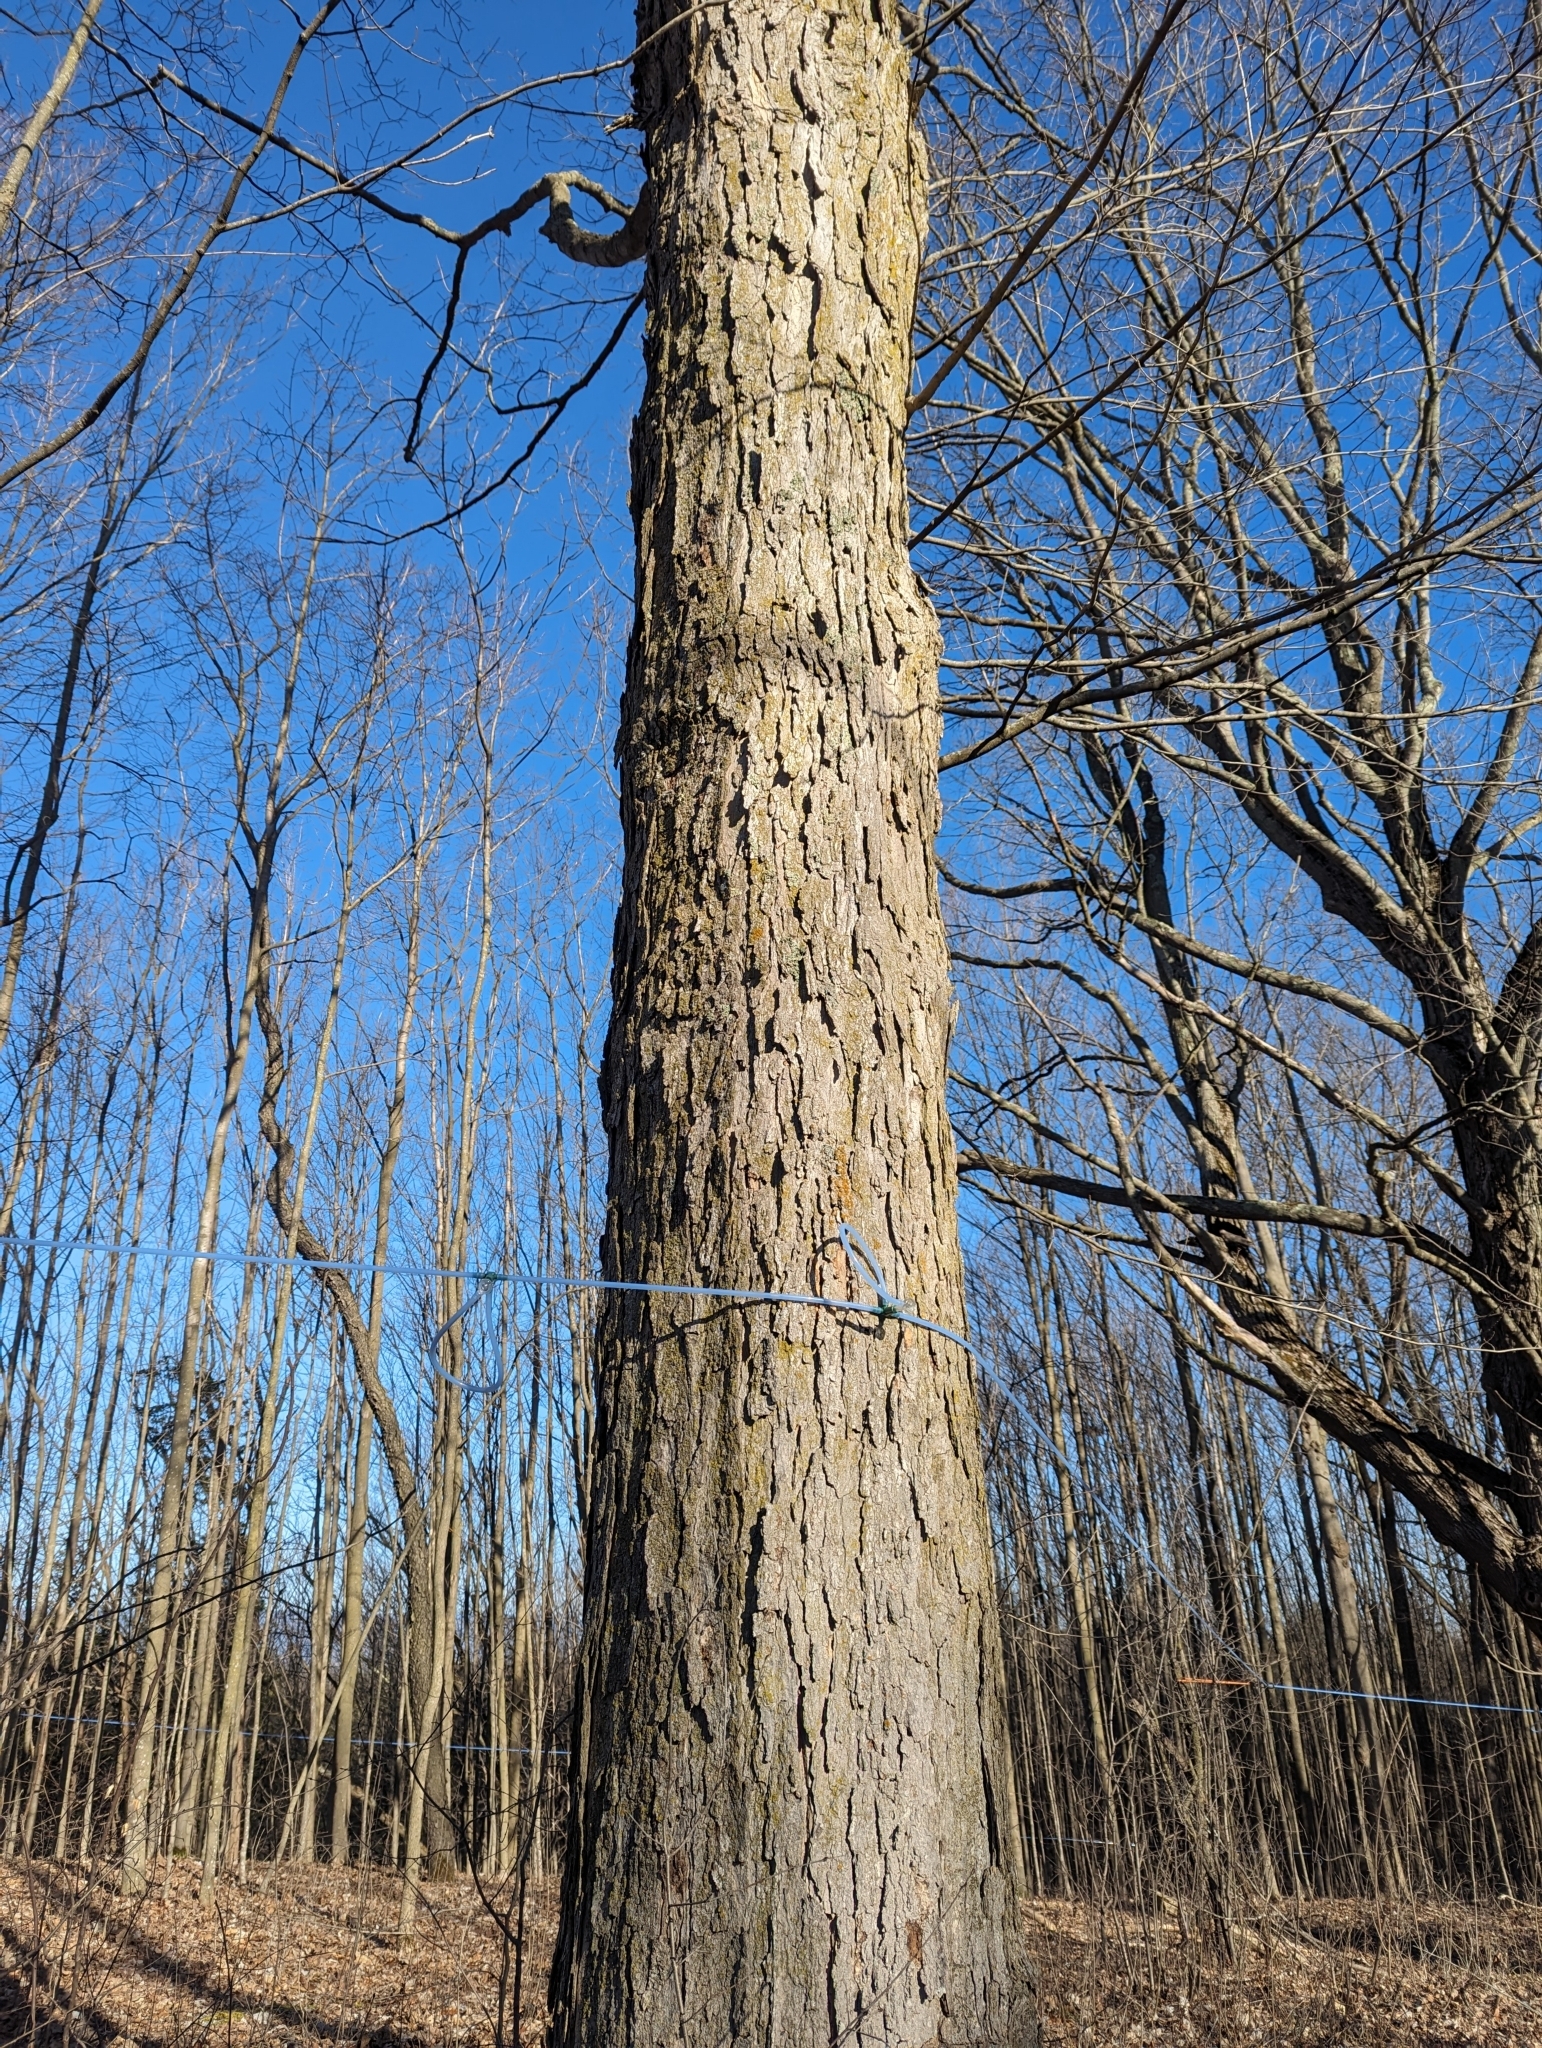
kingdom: Plantae
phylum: Tracheophyta
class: Magnoliopsida
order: Sapindales
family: Sapindaceae
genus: Acer
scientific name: Acer saccharum
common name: Sugar maple
